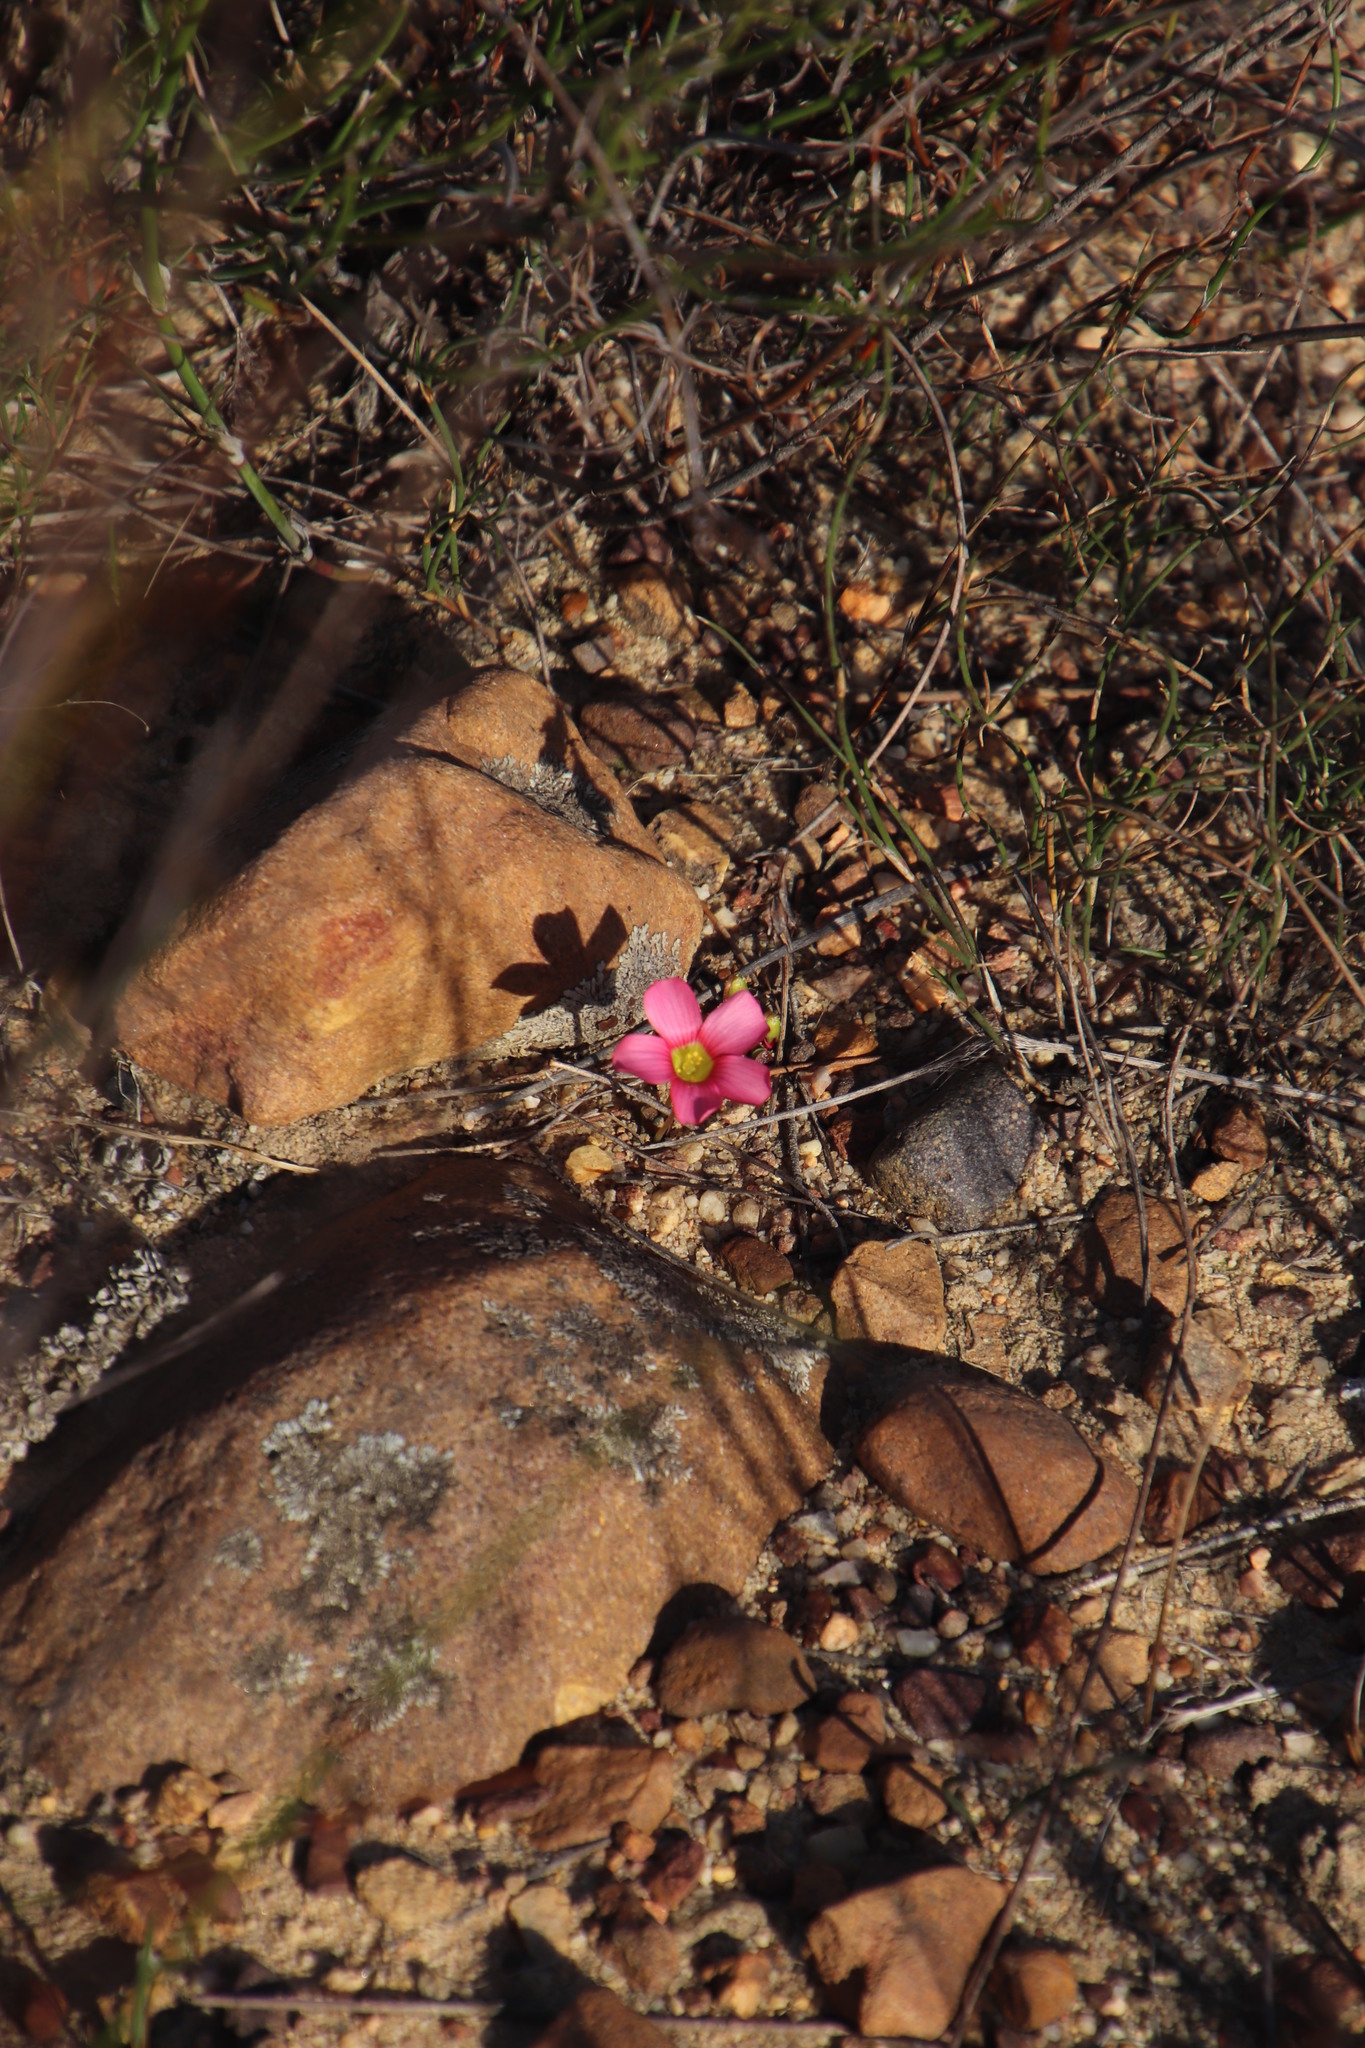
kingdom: Plantae
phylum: Tracheophyta
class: Magnoliopsida
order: Oxalidales
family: Oxalidaceae
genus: Oxalis
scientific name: Oxalis obtusa
